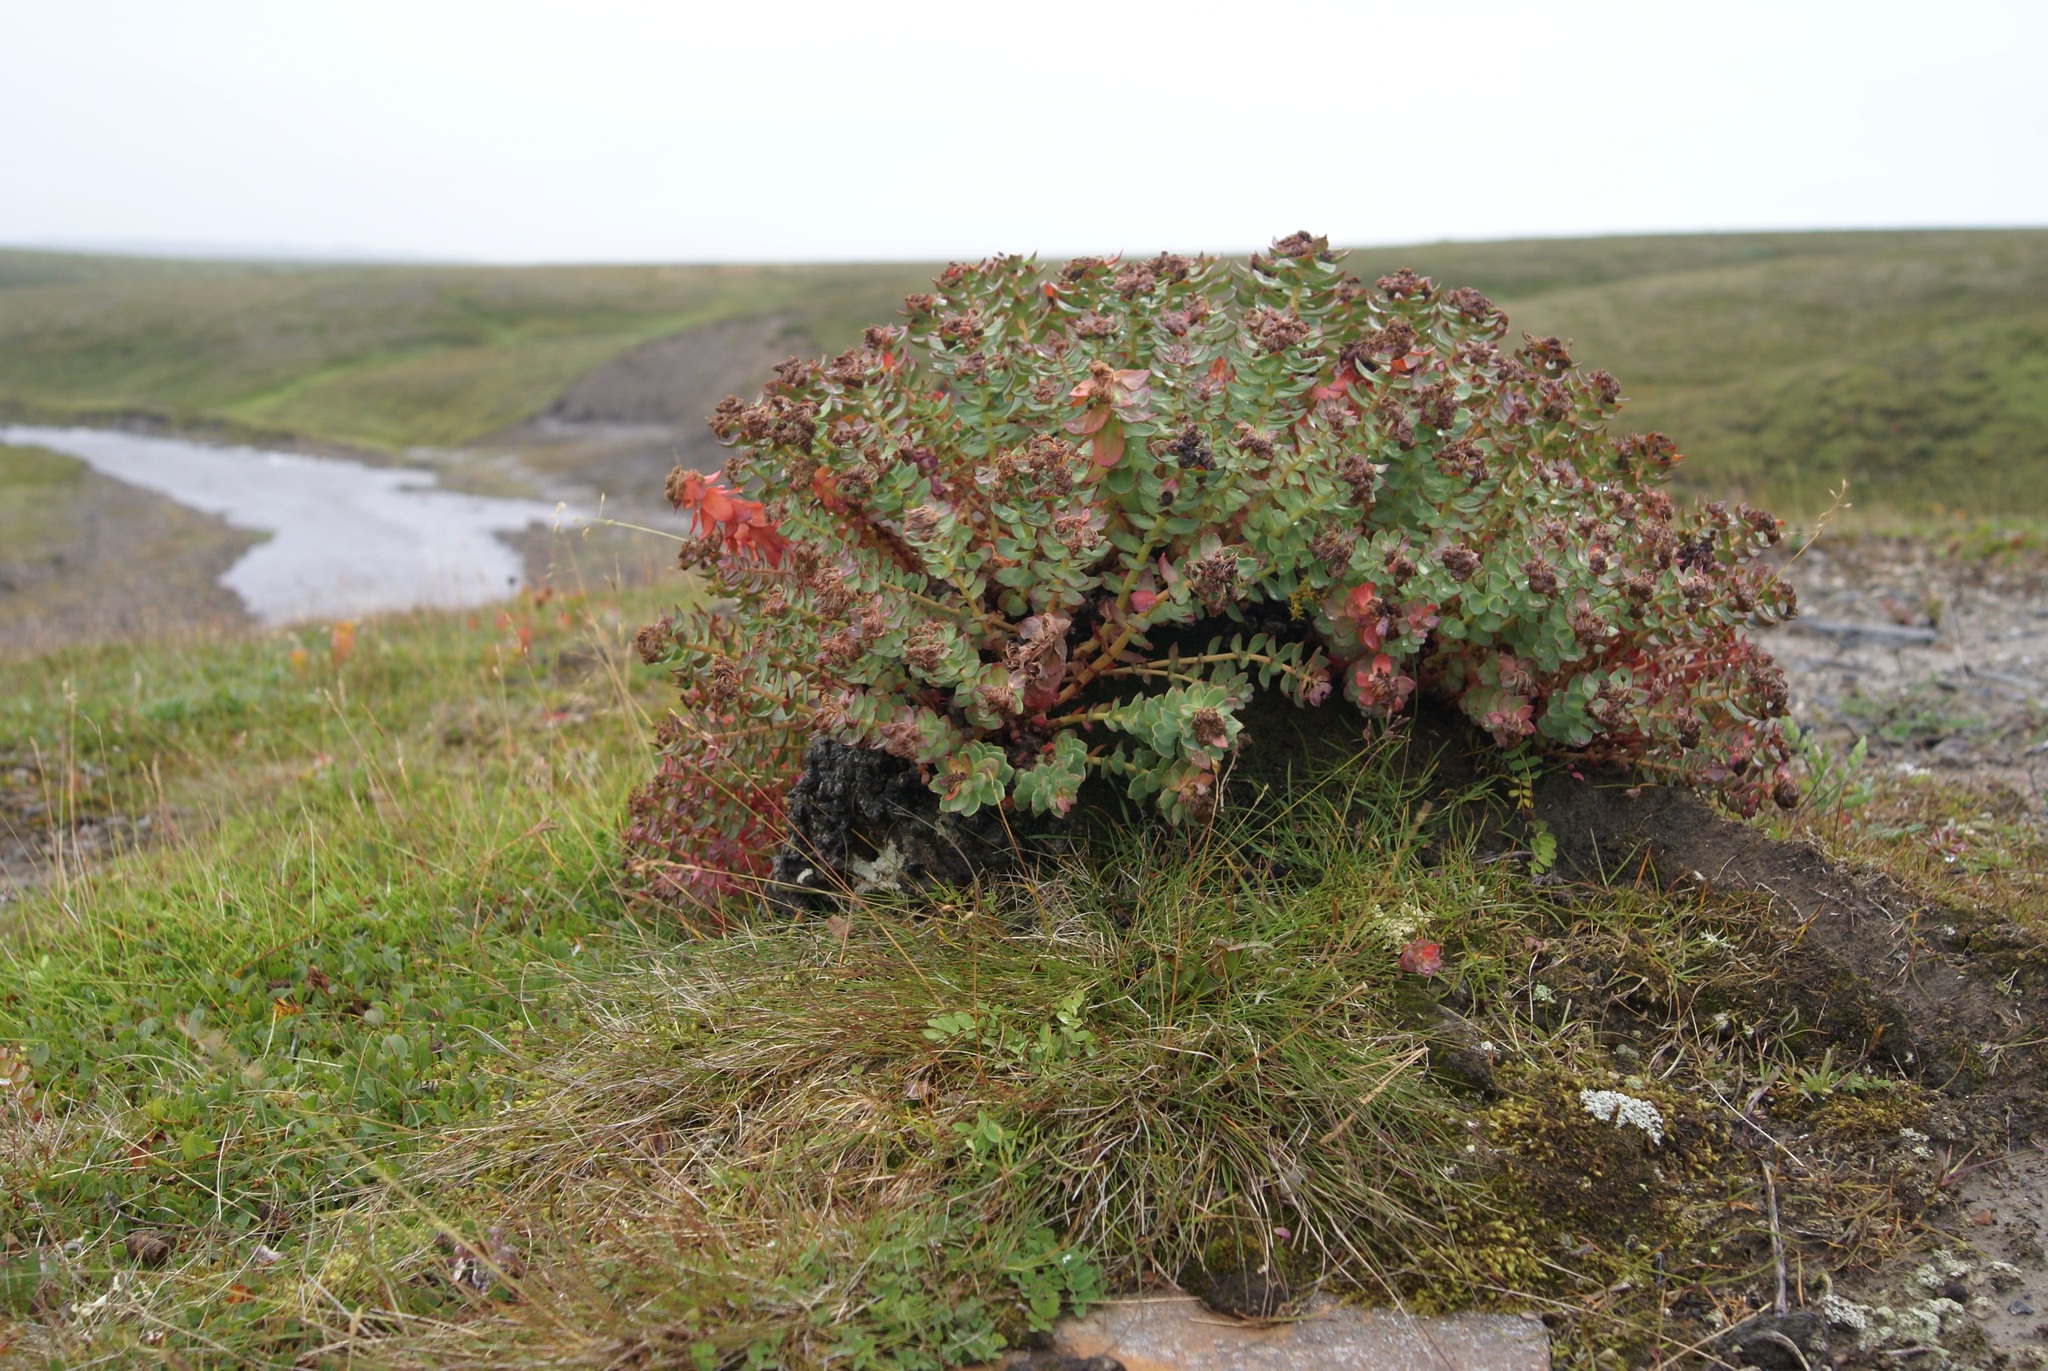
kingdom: Plantae
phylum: Tracheophyta
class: Magnoliopsida
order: Saxifragales
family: Crassulaceae
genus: Rhodiola
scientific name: Rhodiola rosea
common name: Roseroot
